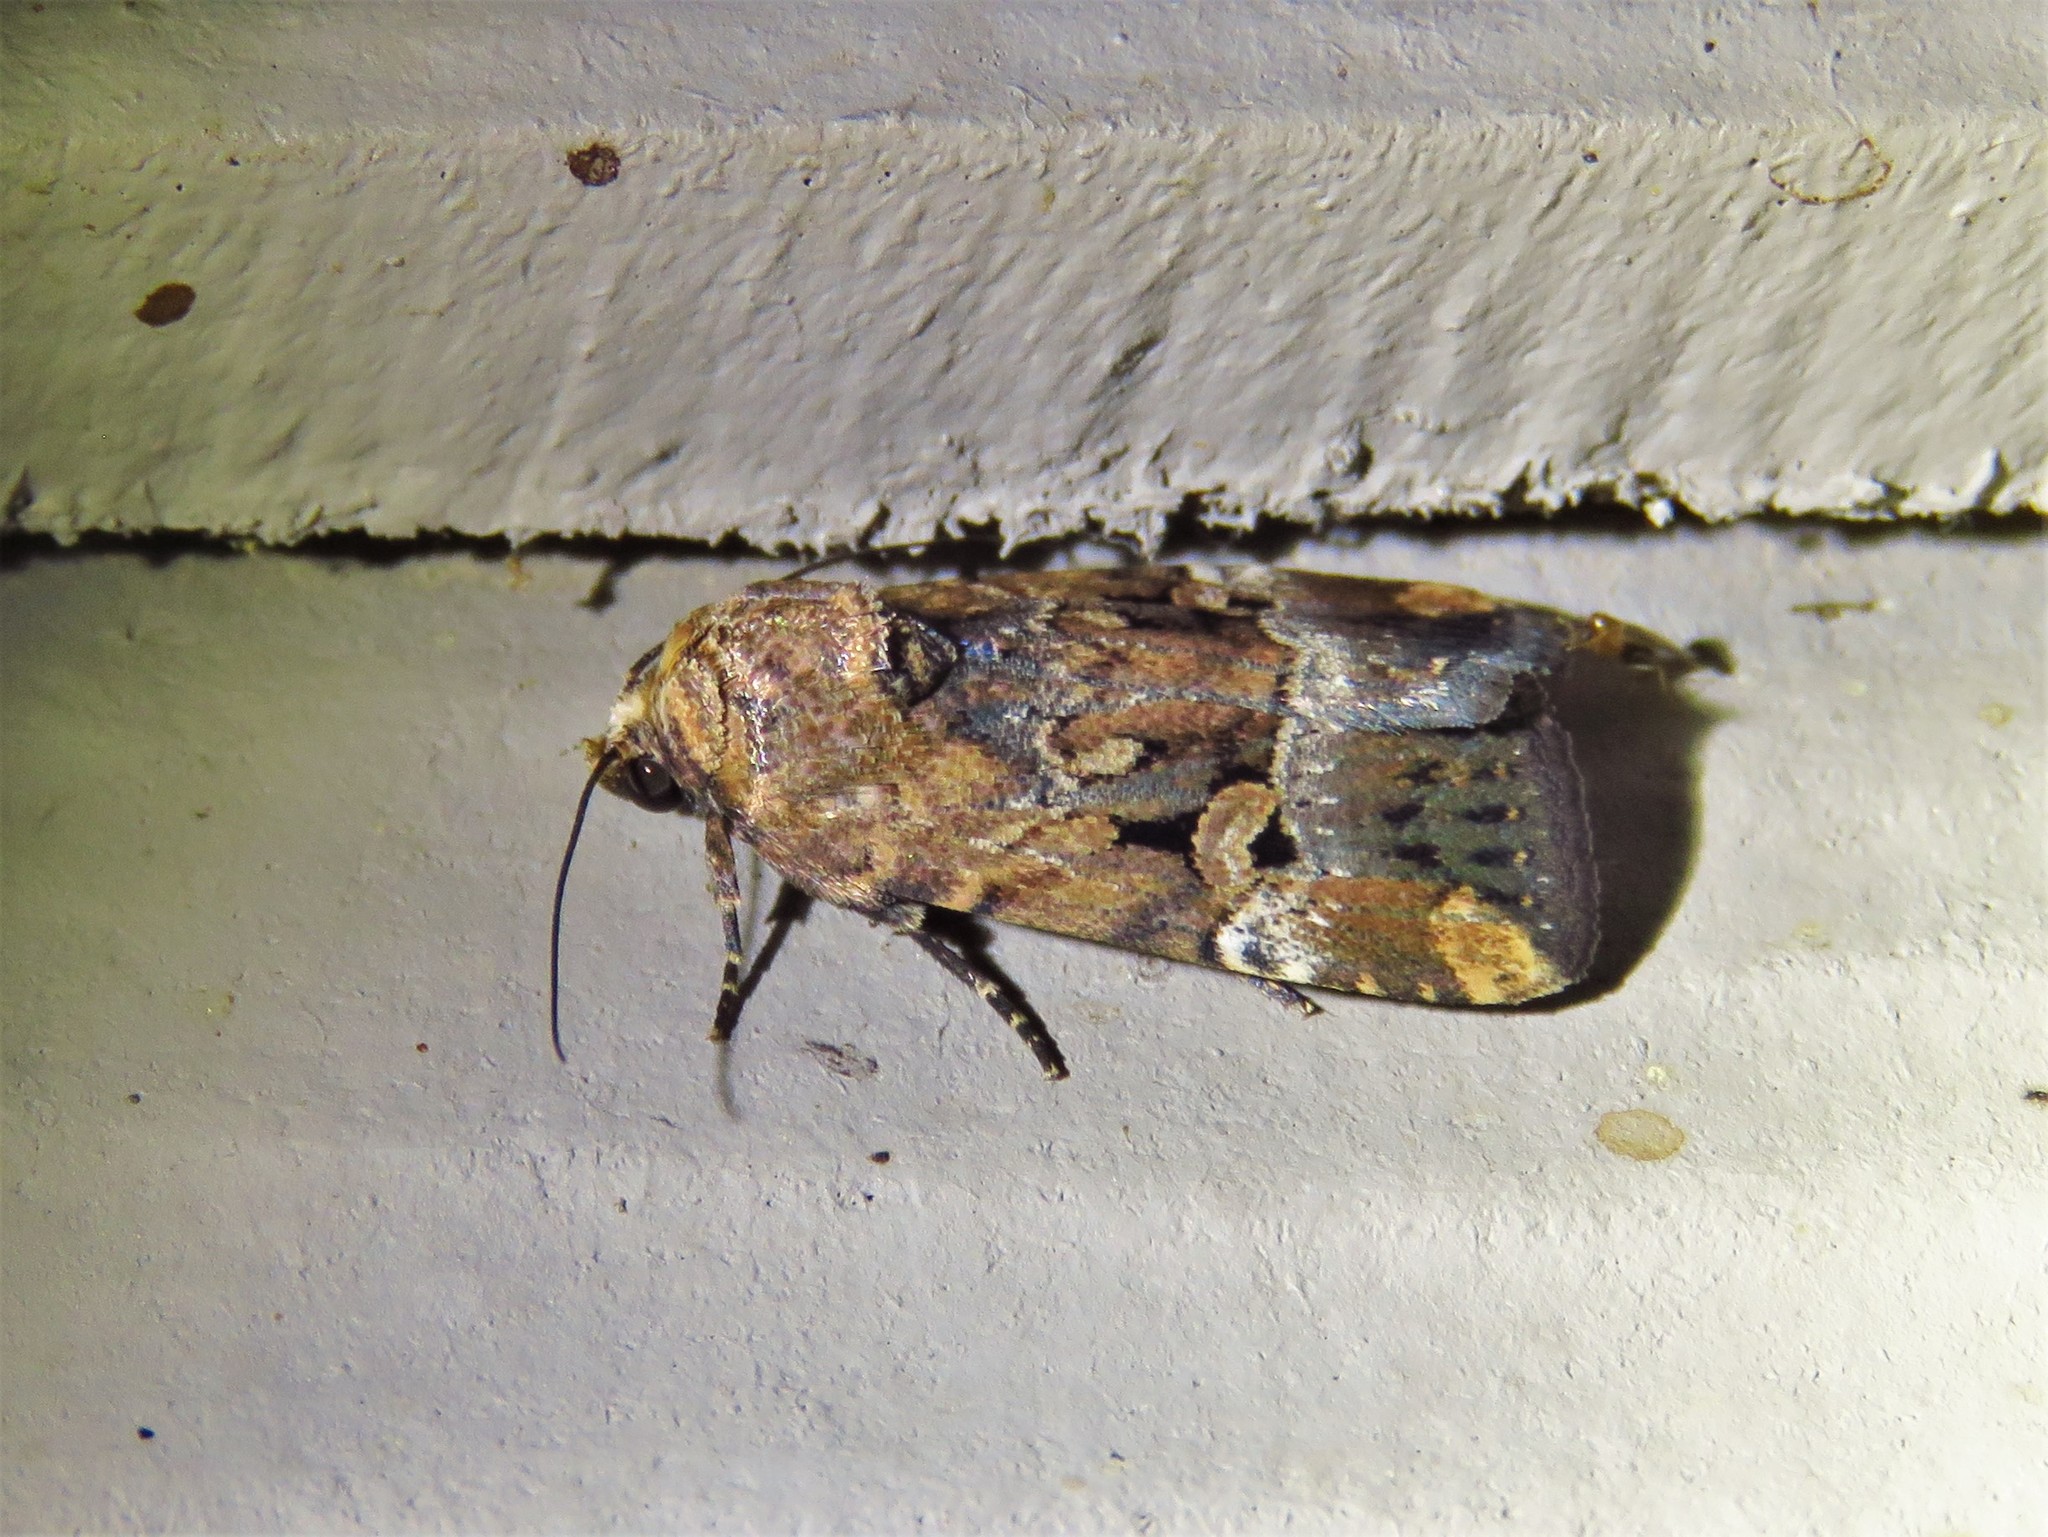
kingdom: Animalia
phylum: Arthropoda
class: Insecta
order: Lepidoptera
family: Noctuidae
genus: Elaphria
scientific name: Elaphria chalcedonia
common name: Chalcedony midget
